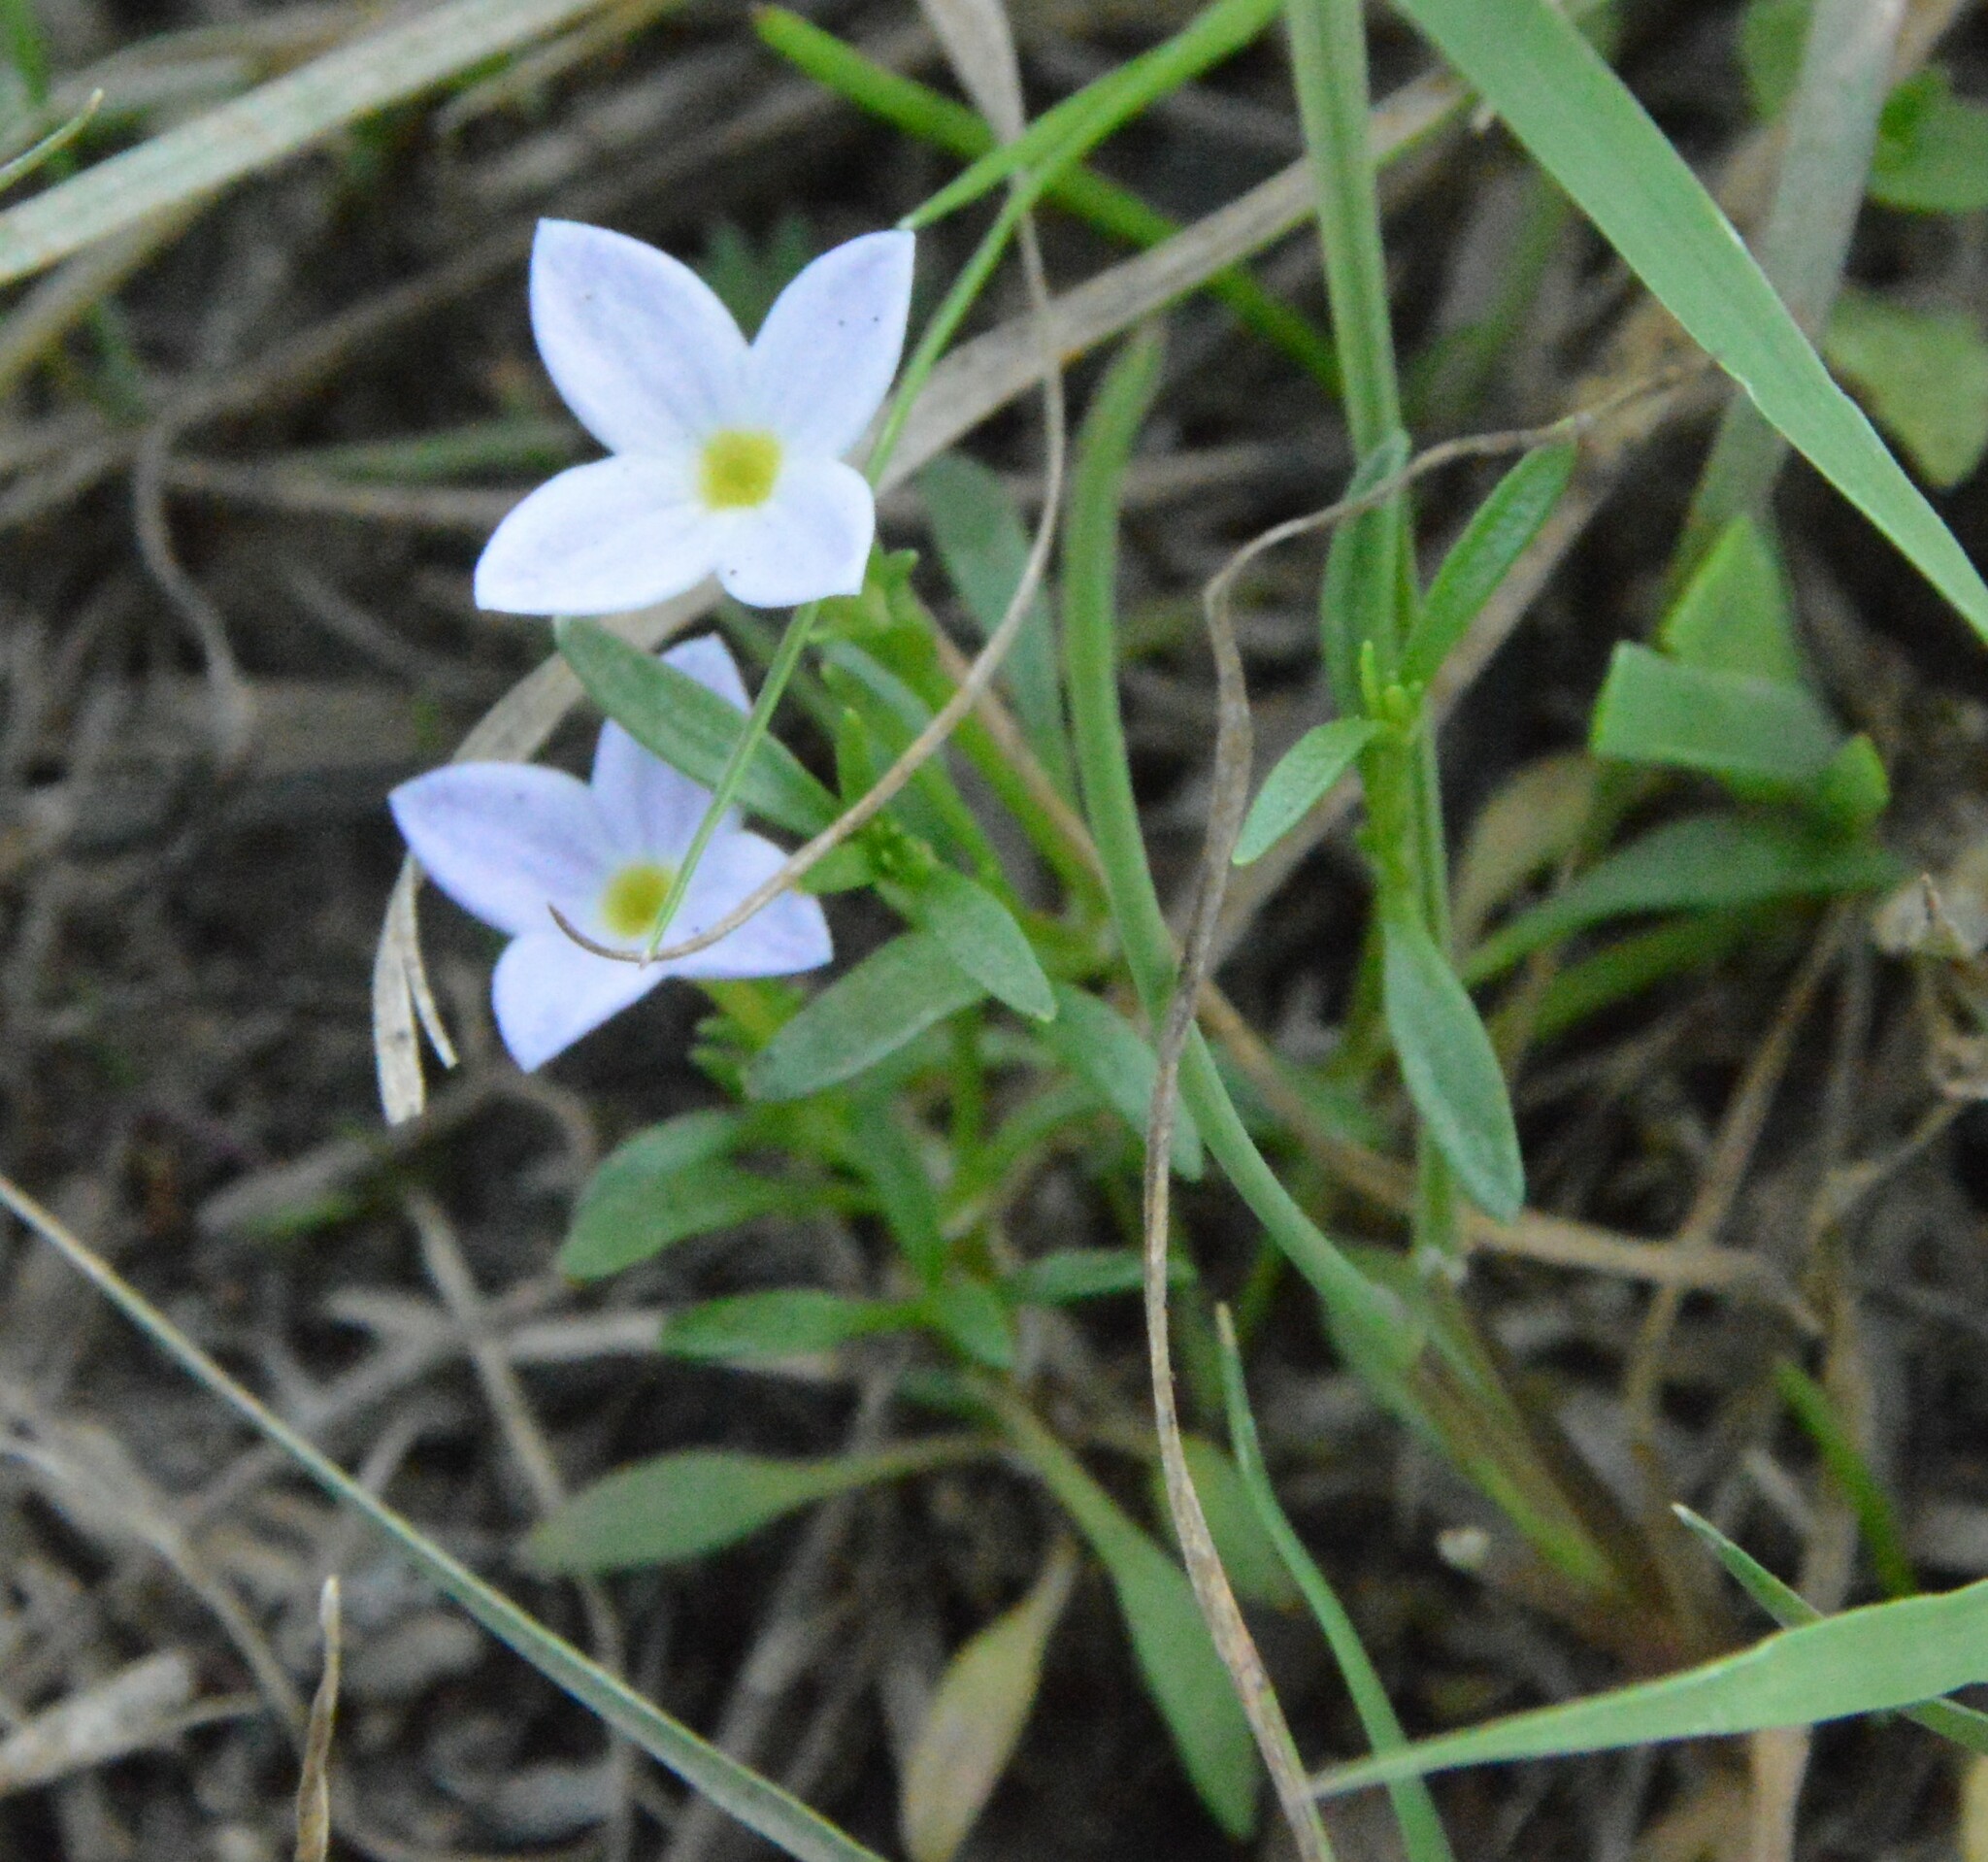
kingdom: Plantae
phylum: Tracheophyta
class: Magnoliopsida
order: Gentianales
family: Rubiaceae
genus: Houstonia
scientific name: Houstonia rosea
